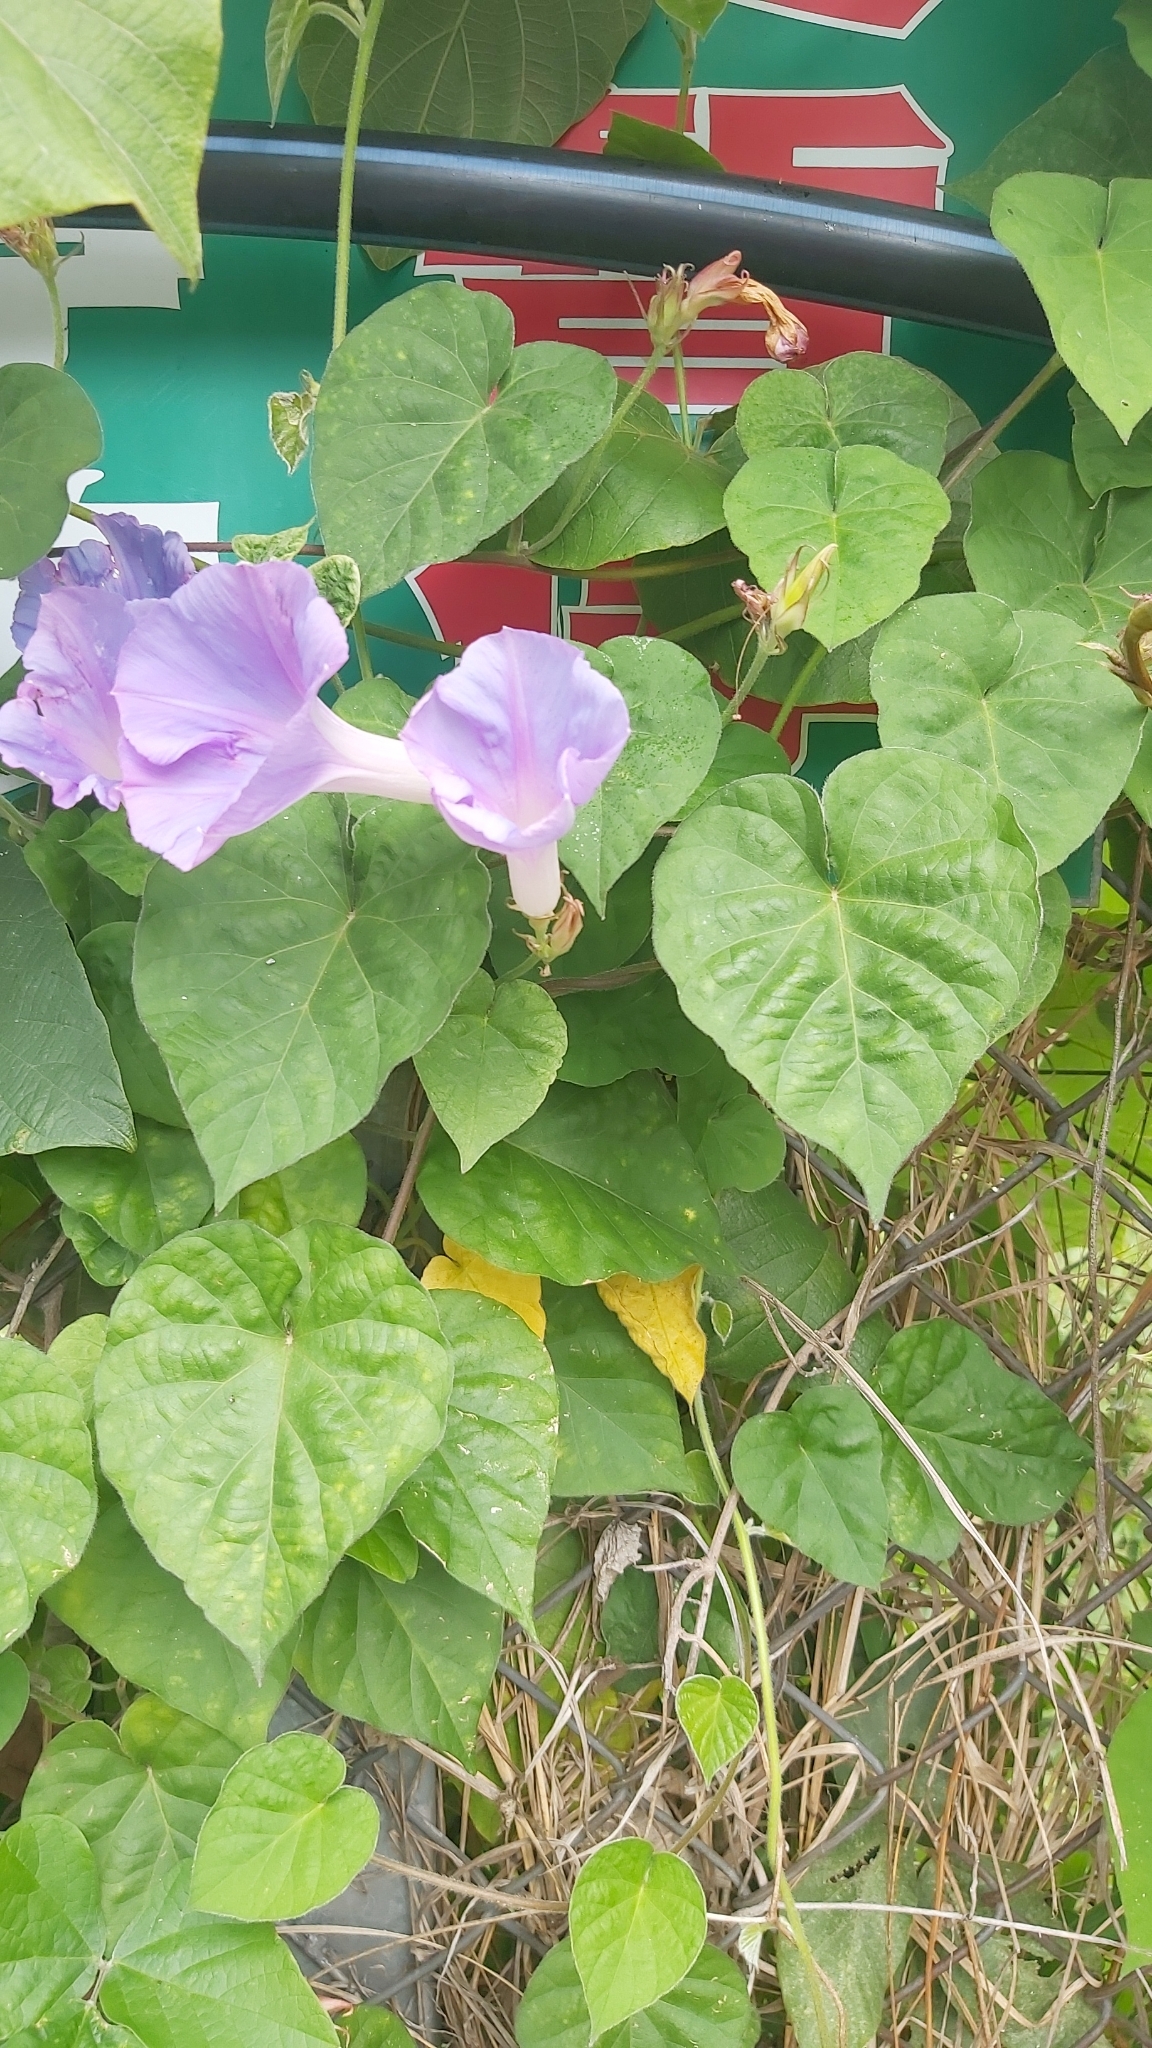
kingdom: Plantae
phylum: Tracheophyta
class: Magnoliopsida
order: Solanales
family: Convolvulaceae
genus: Ipomoea
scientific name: Ipomoea indica
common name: Blue dawnflower
